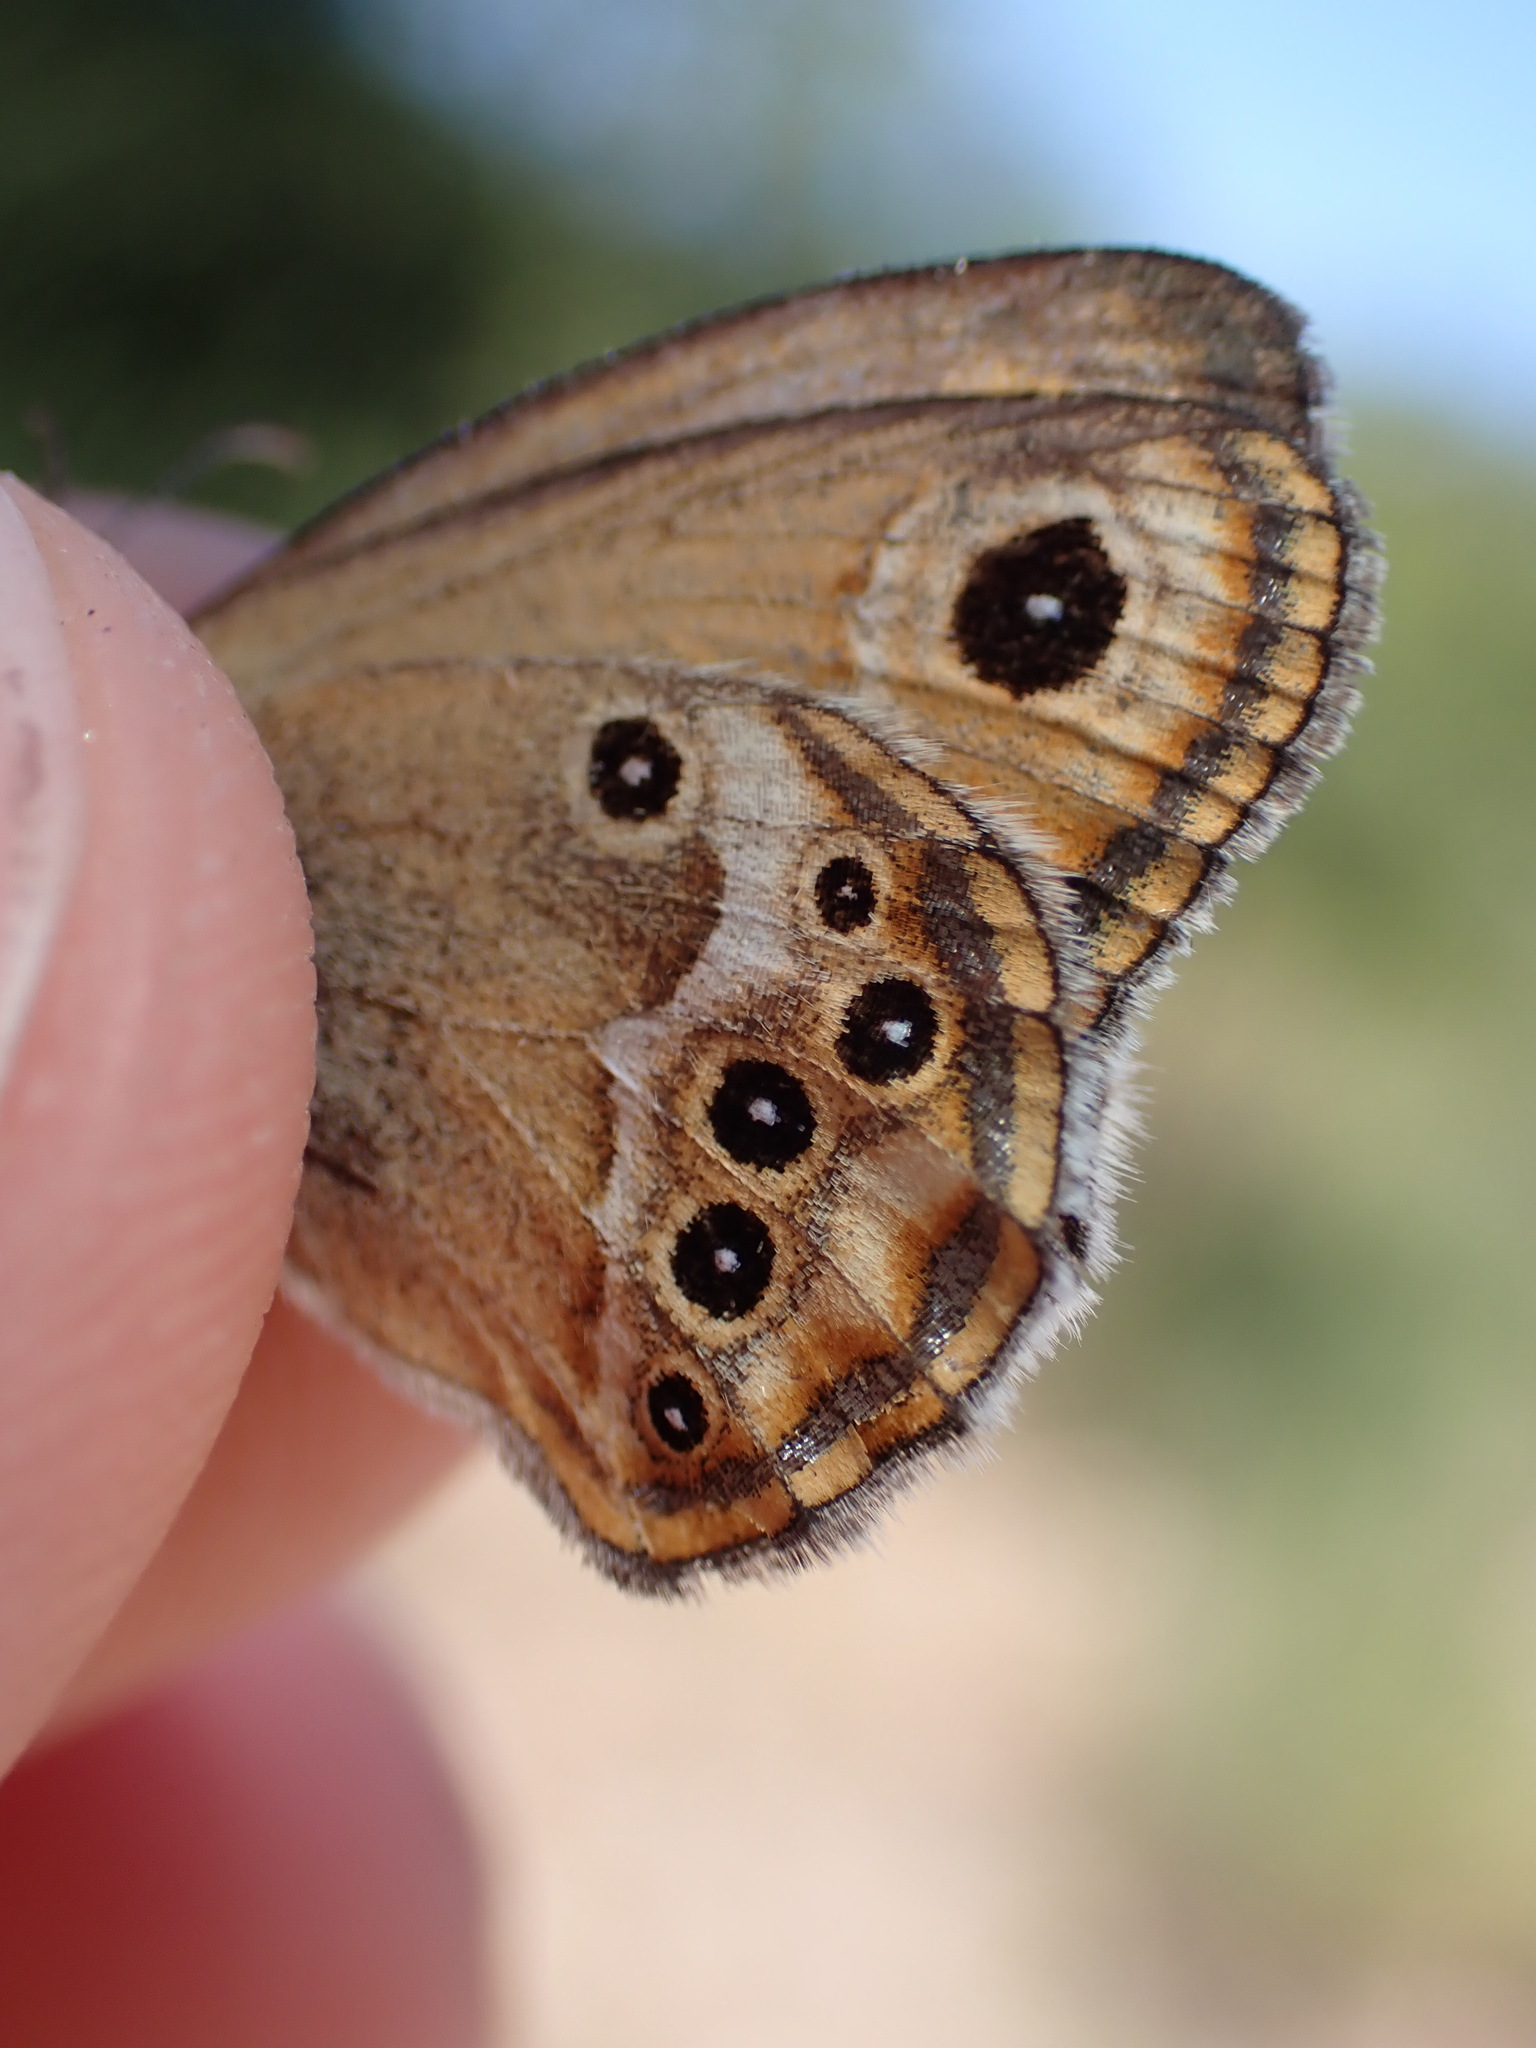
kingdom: Animalia
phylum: Arthropoda
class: Insecta
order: Lepidoptera
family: Nymphalidae
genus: Coenonympha
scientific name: Coenonympha dorus
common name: Dusky heath
